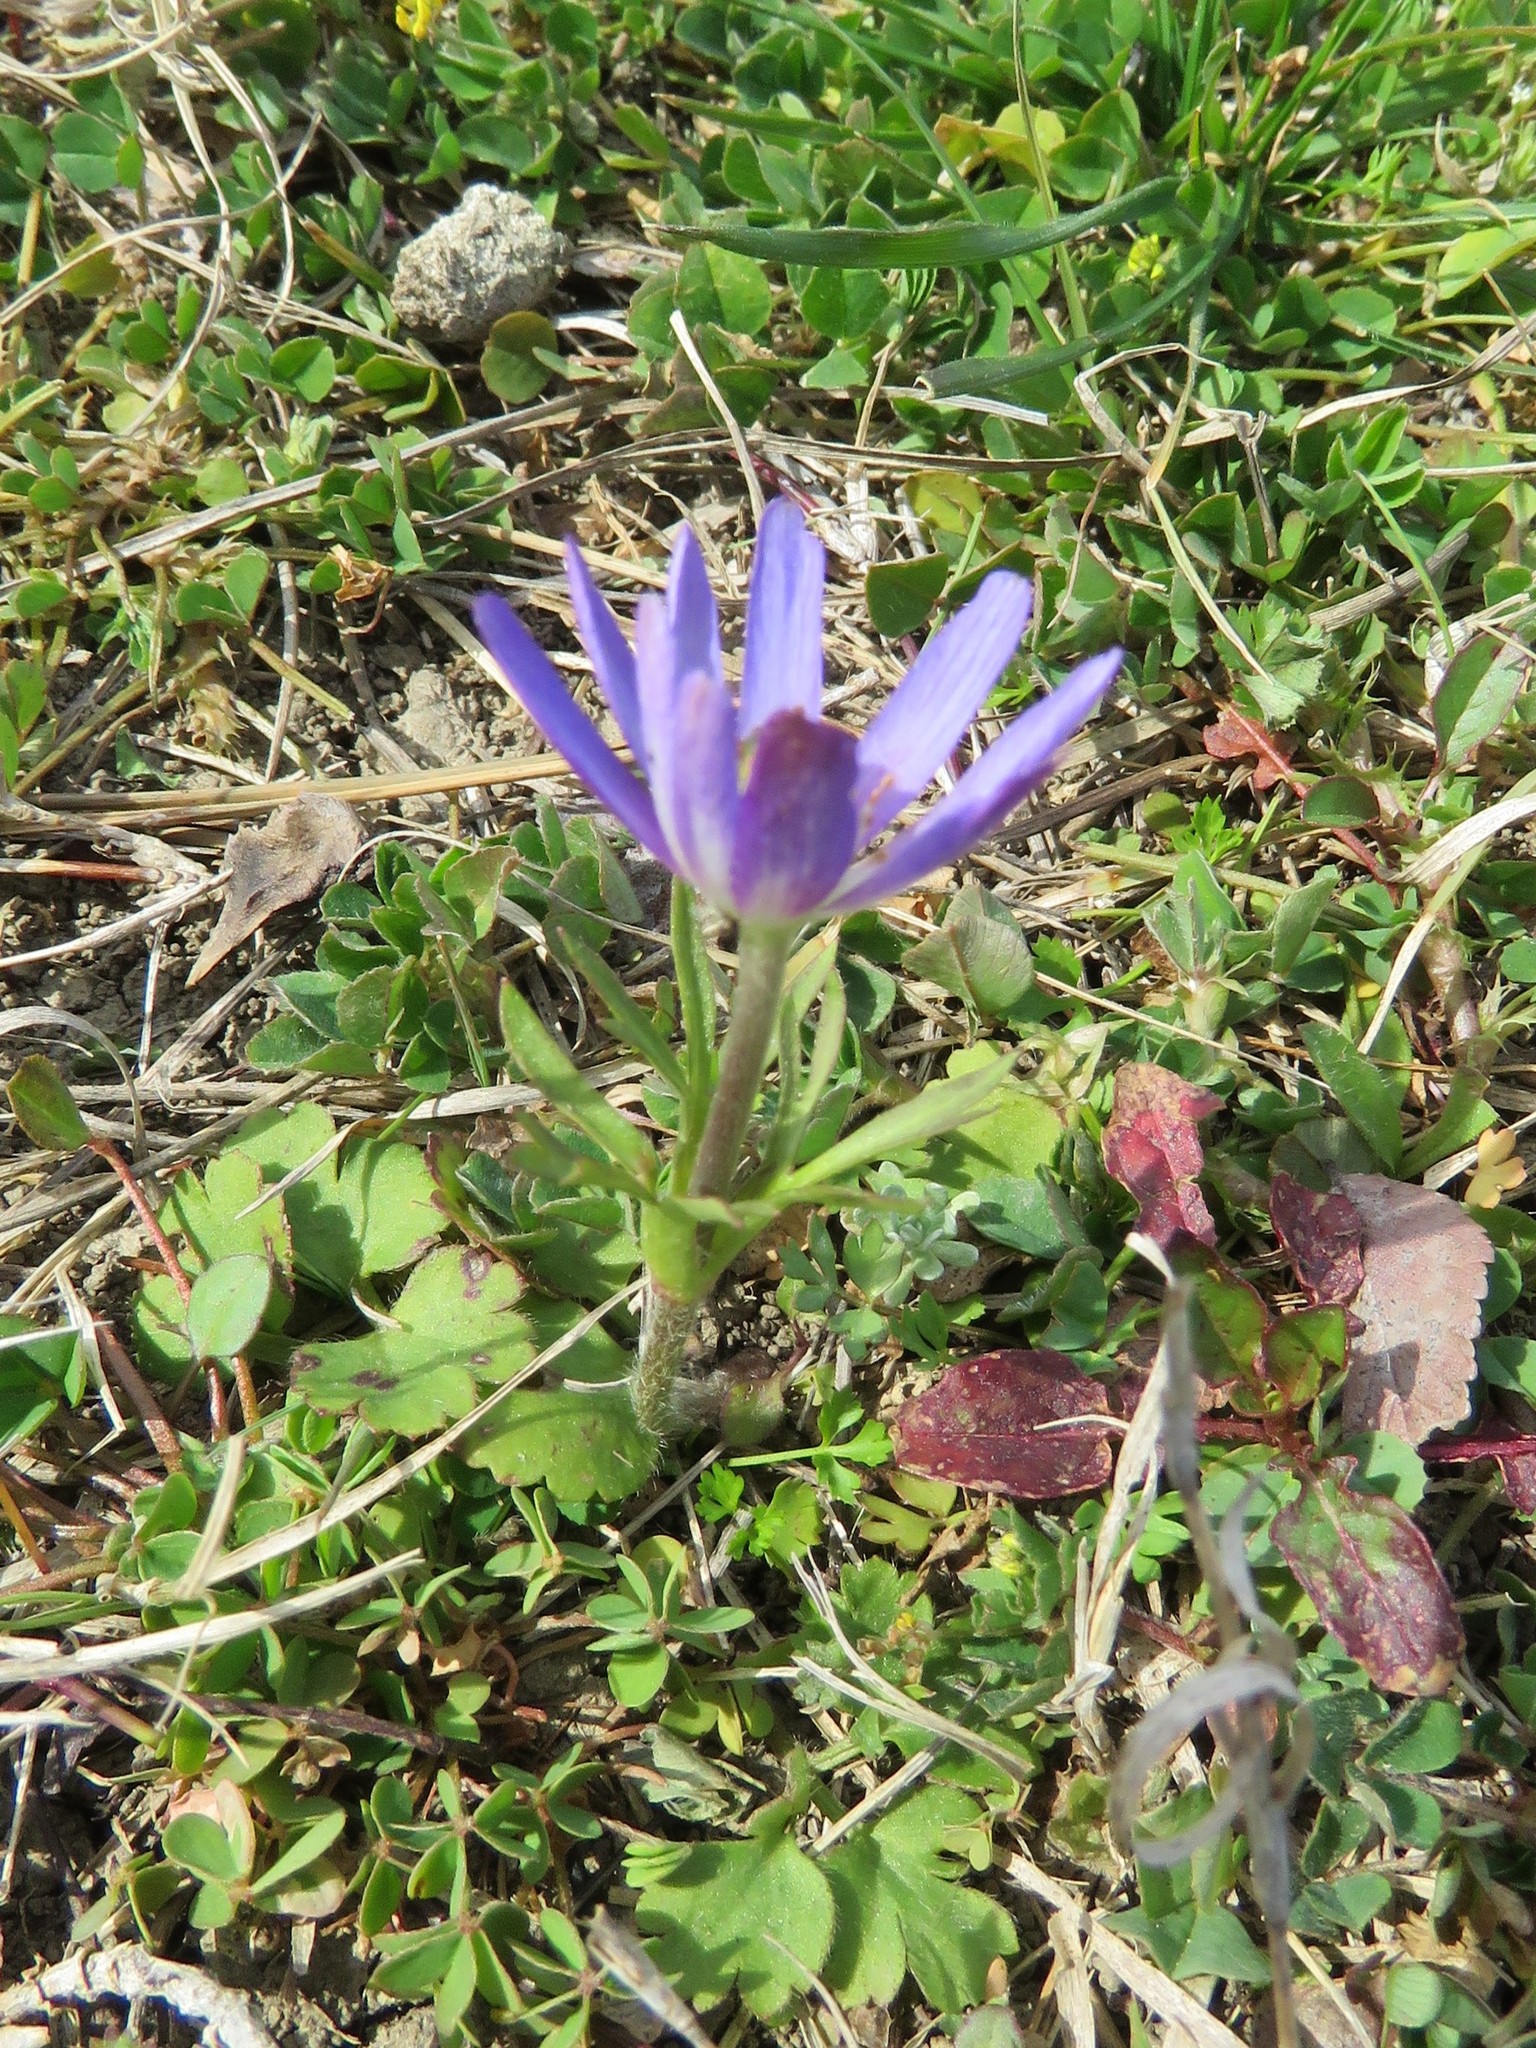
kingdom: Plantae
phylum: Tracheophyta
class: Magnoliopsida
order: Ranunculales
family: Ranunculaceae
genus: Anemone
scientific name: Anemone berlandieri
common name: Ten-petal anemone
